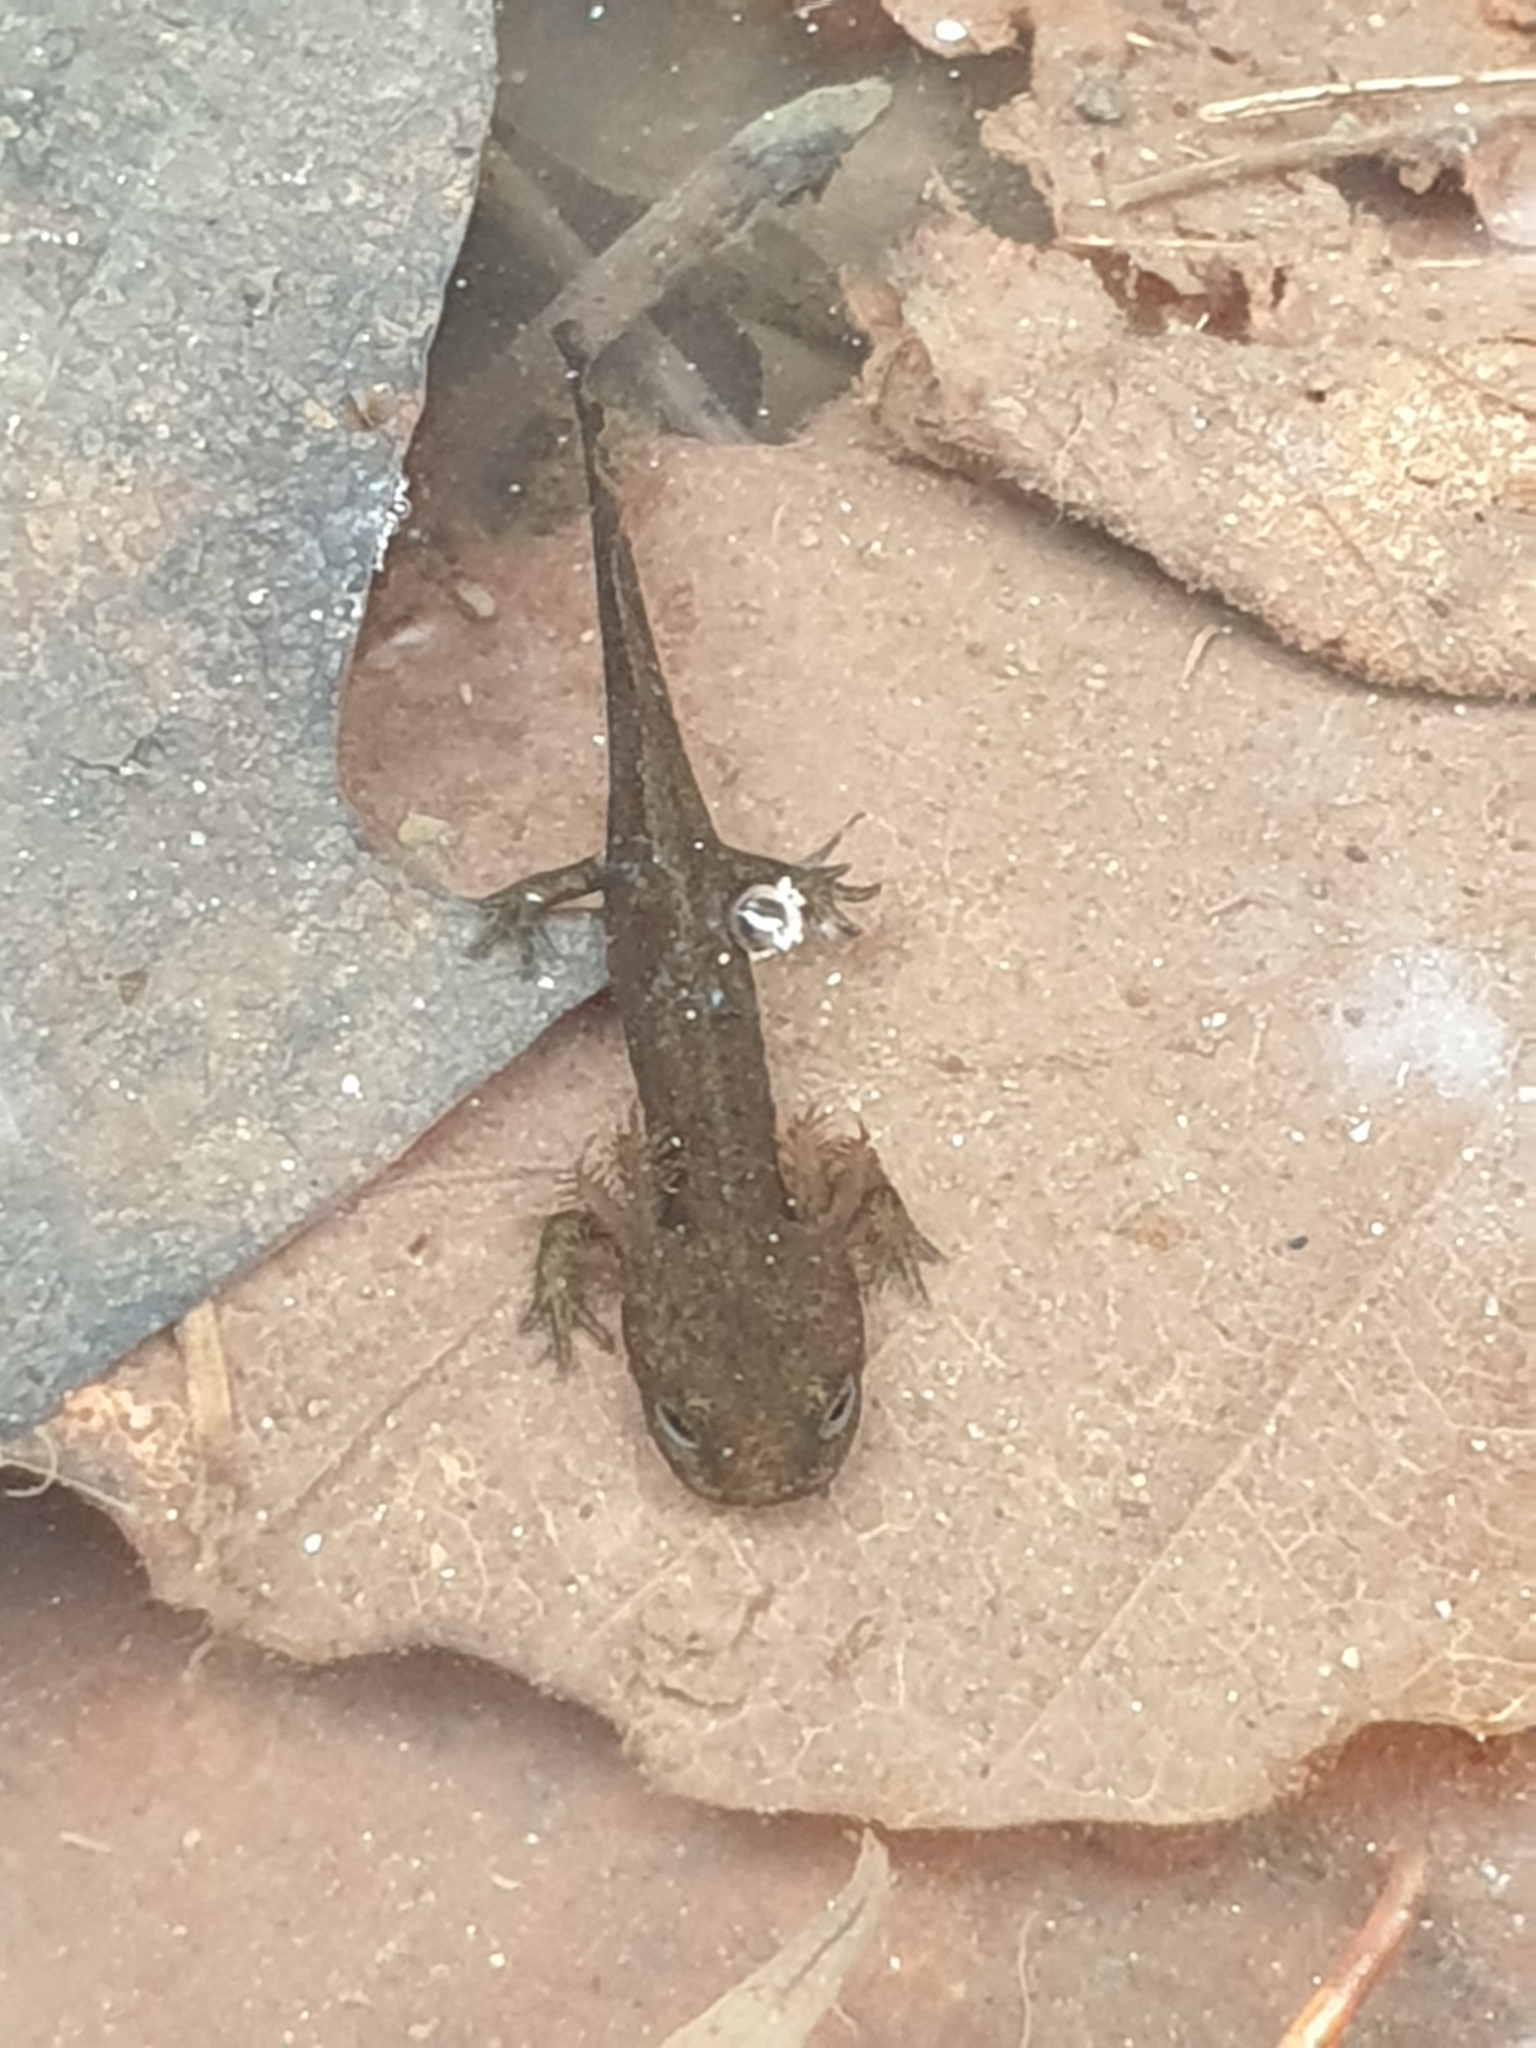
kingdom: Animalia
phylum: Chordata
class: Amphibia
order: Caudata
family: Salamandridae
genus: Salamandra
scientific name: Salamandra salamandra
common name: Fire salamander
